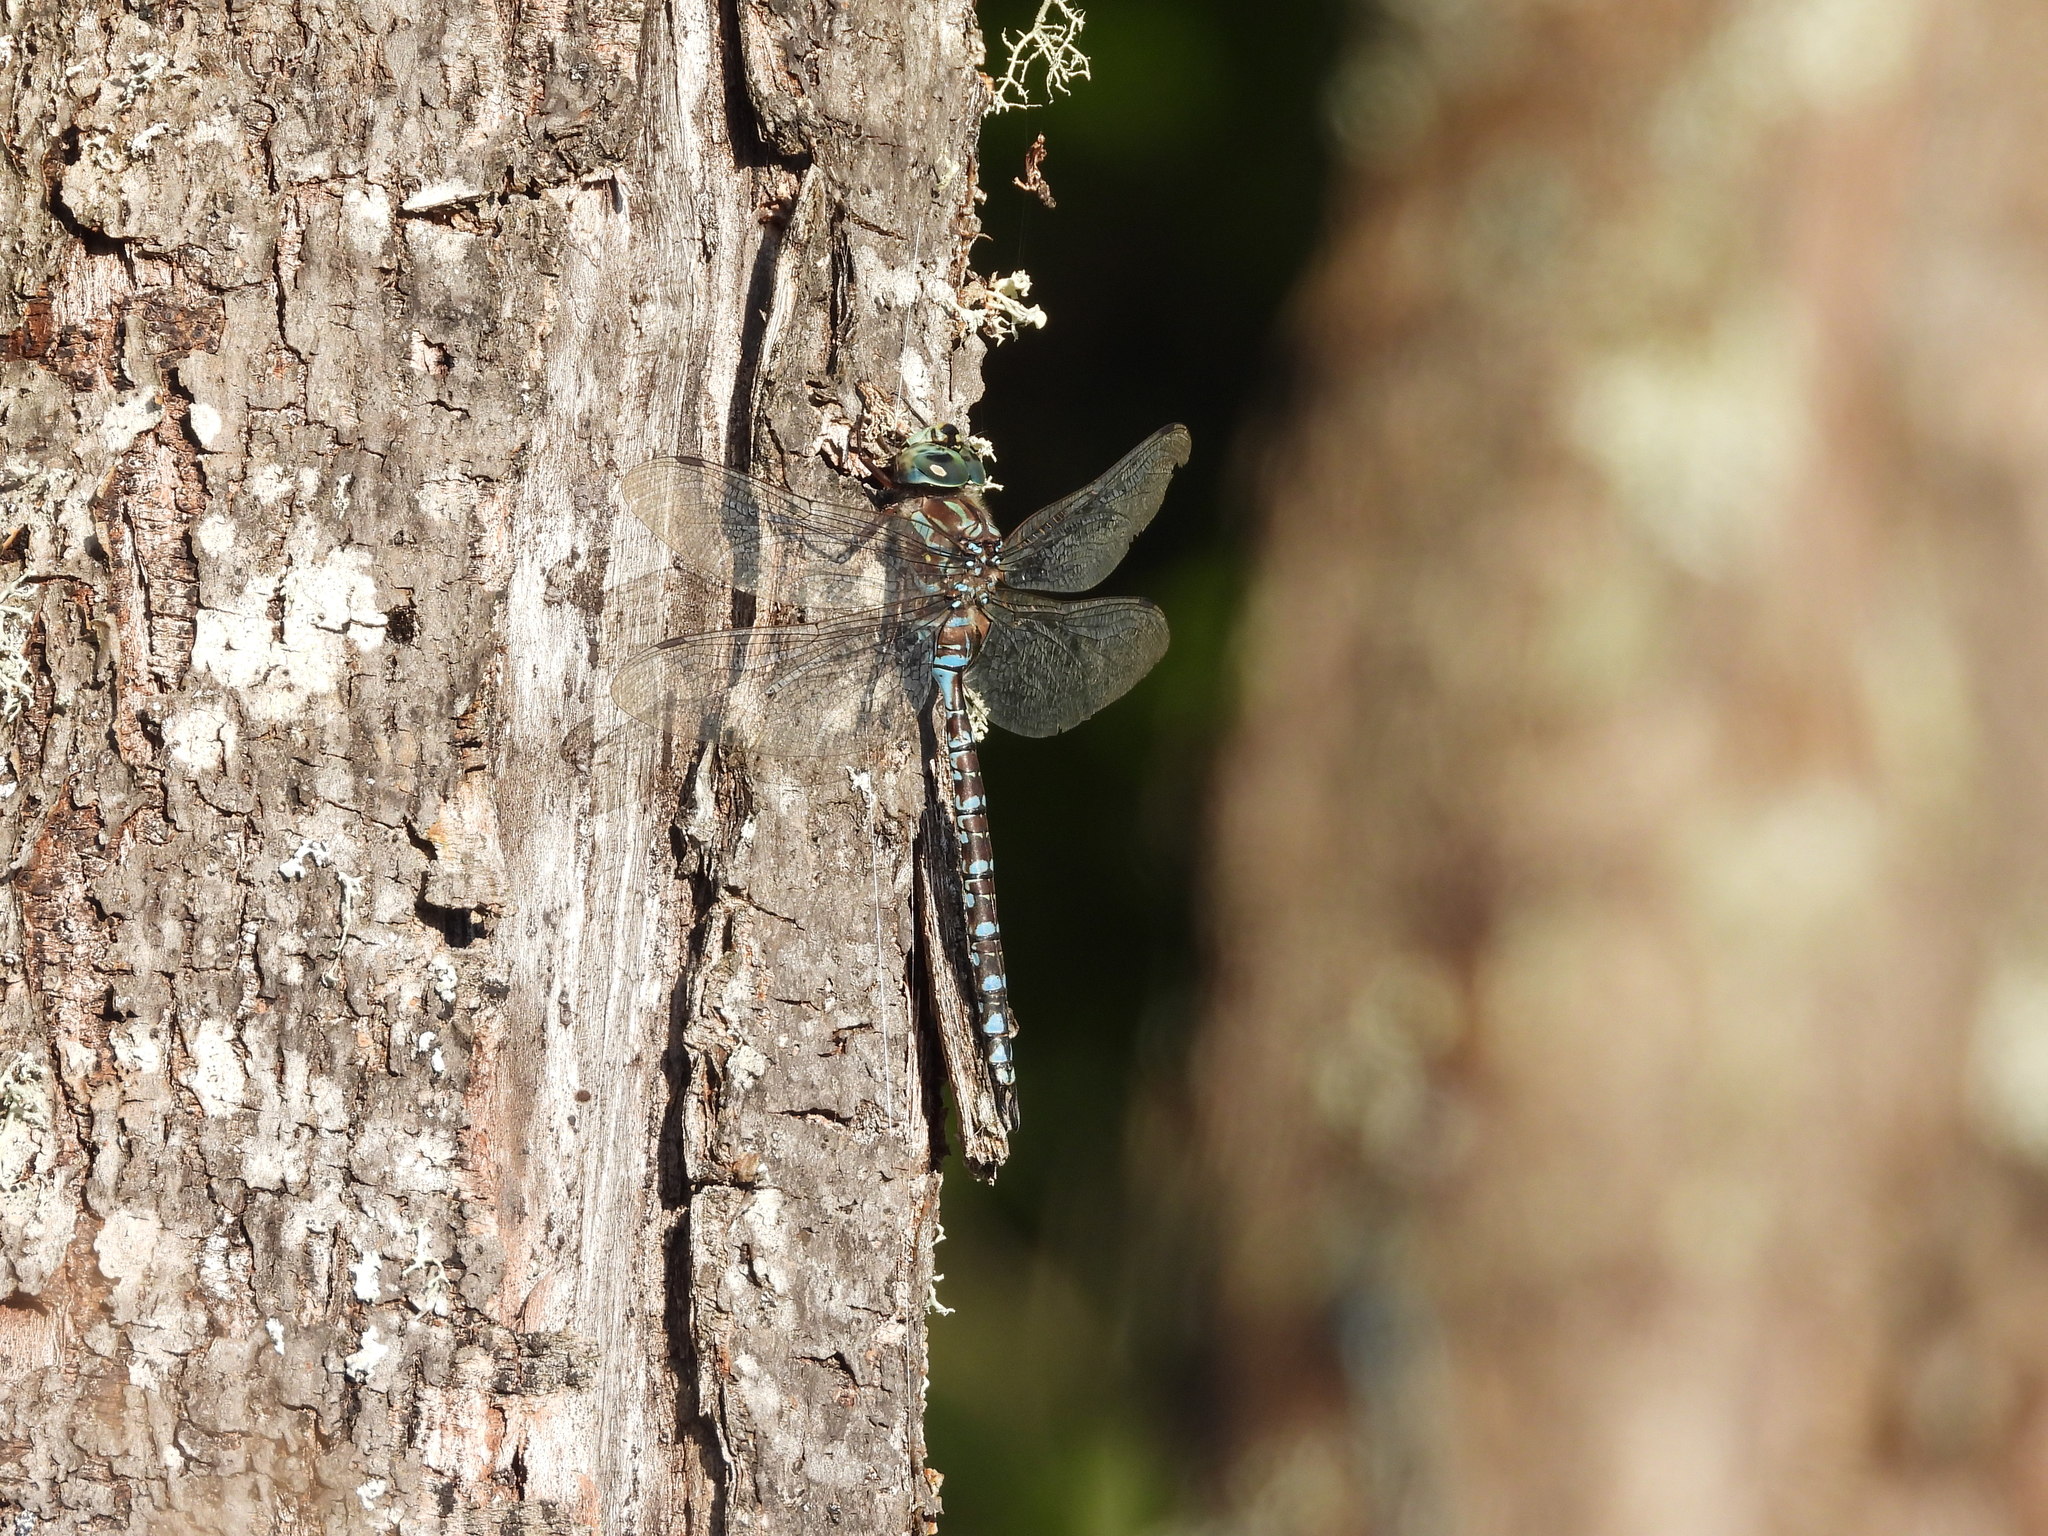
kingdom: Animalia
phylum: Arthropoda
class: Insecta
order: Odonata
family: Aeshnidae
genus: Aeshna
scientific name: Aeshna canadensis
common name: Canada darner
